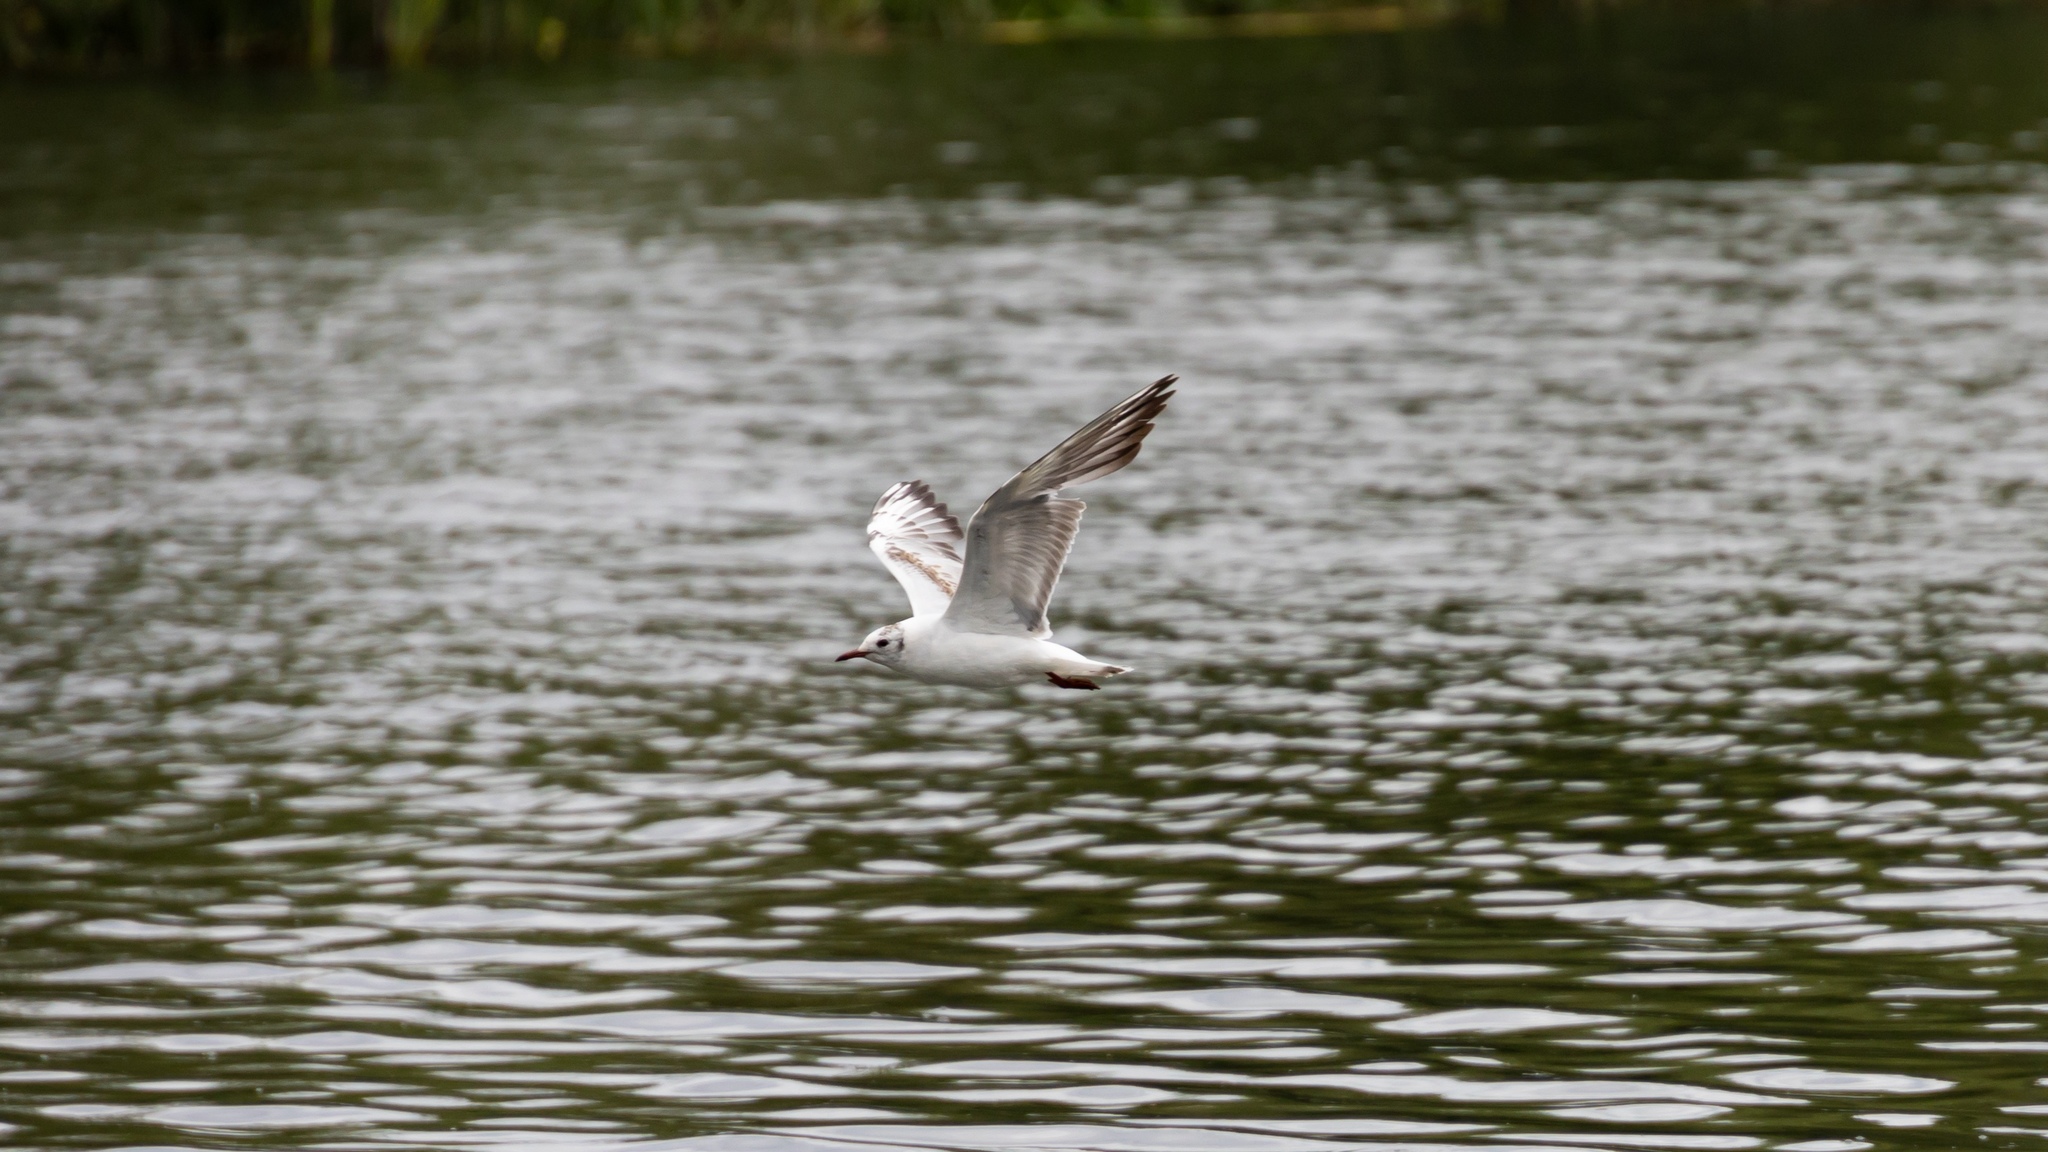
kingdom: Animalia
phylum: Chordata
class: Aves
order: Charadriiformes
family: Laridae
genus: Chroicocephalus
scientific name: Chroicocephalus ridibundus
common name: Black-headed gull
